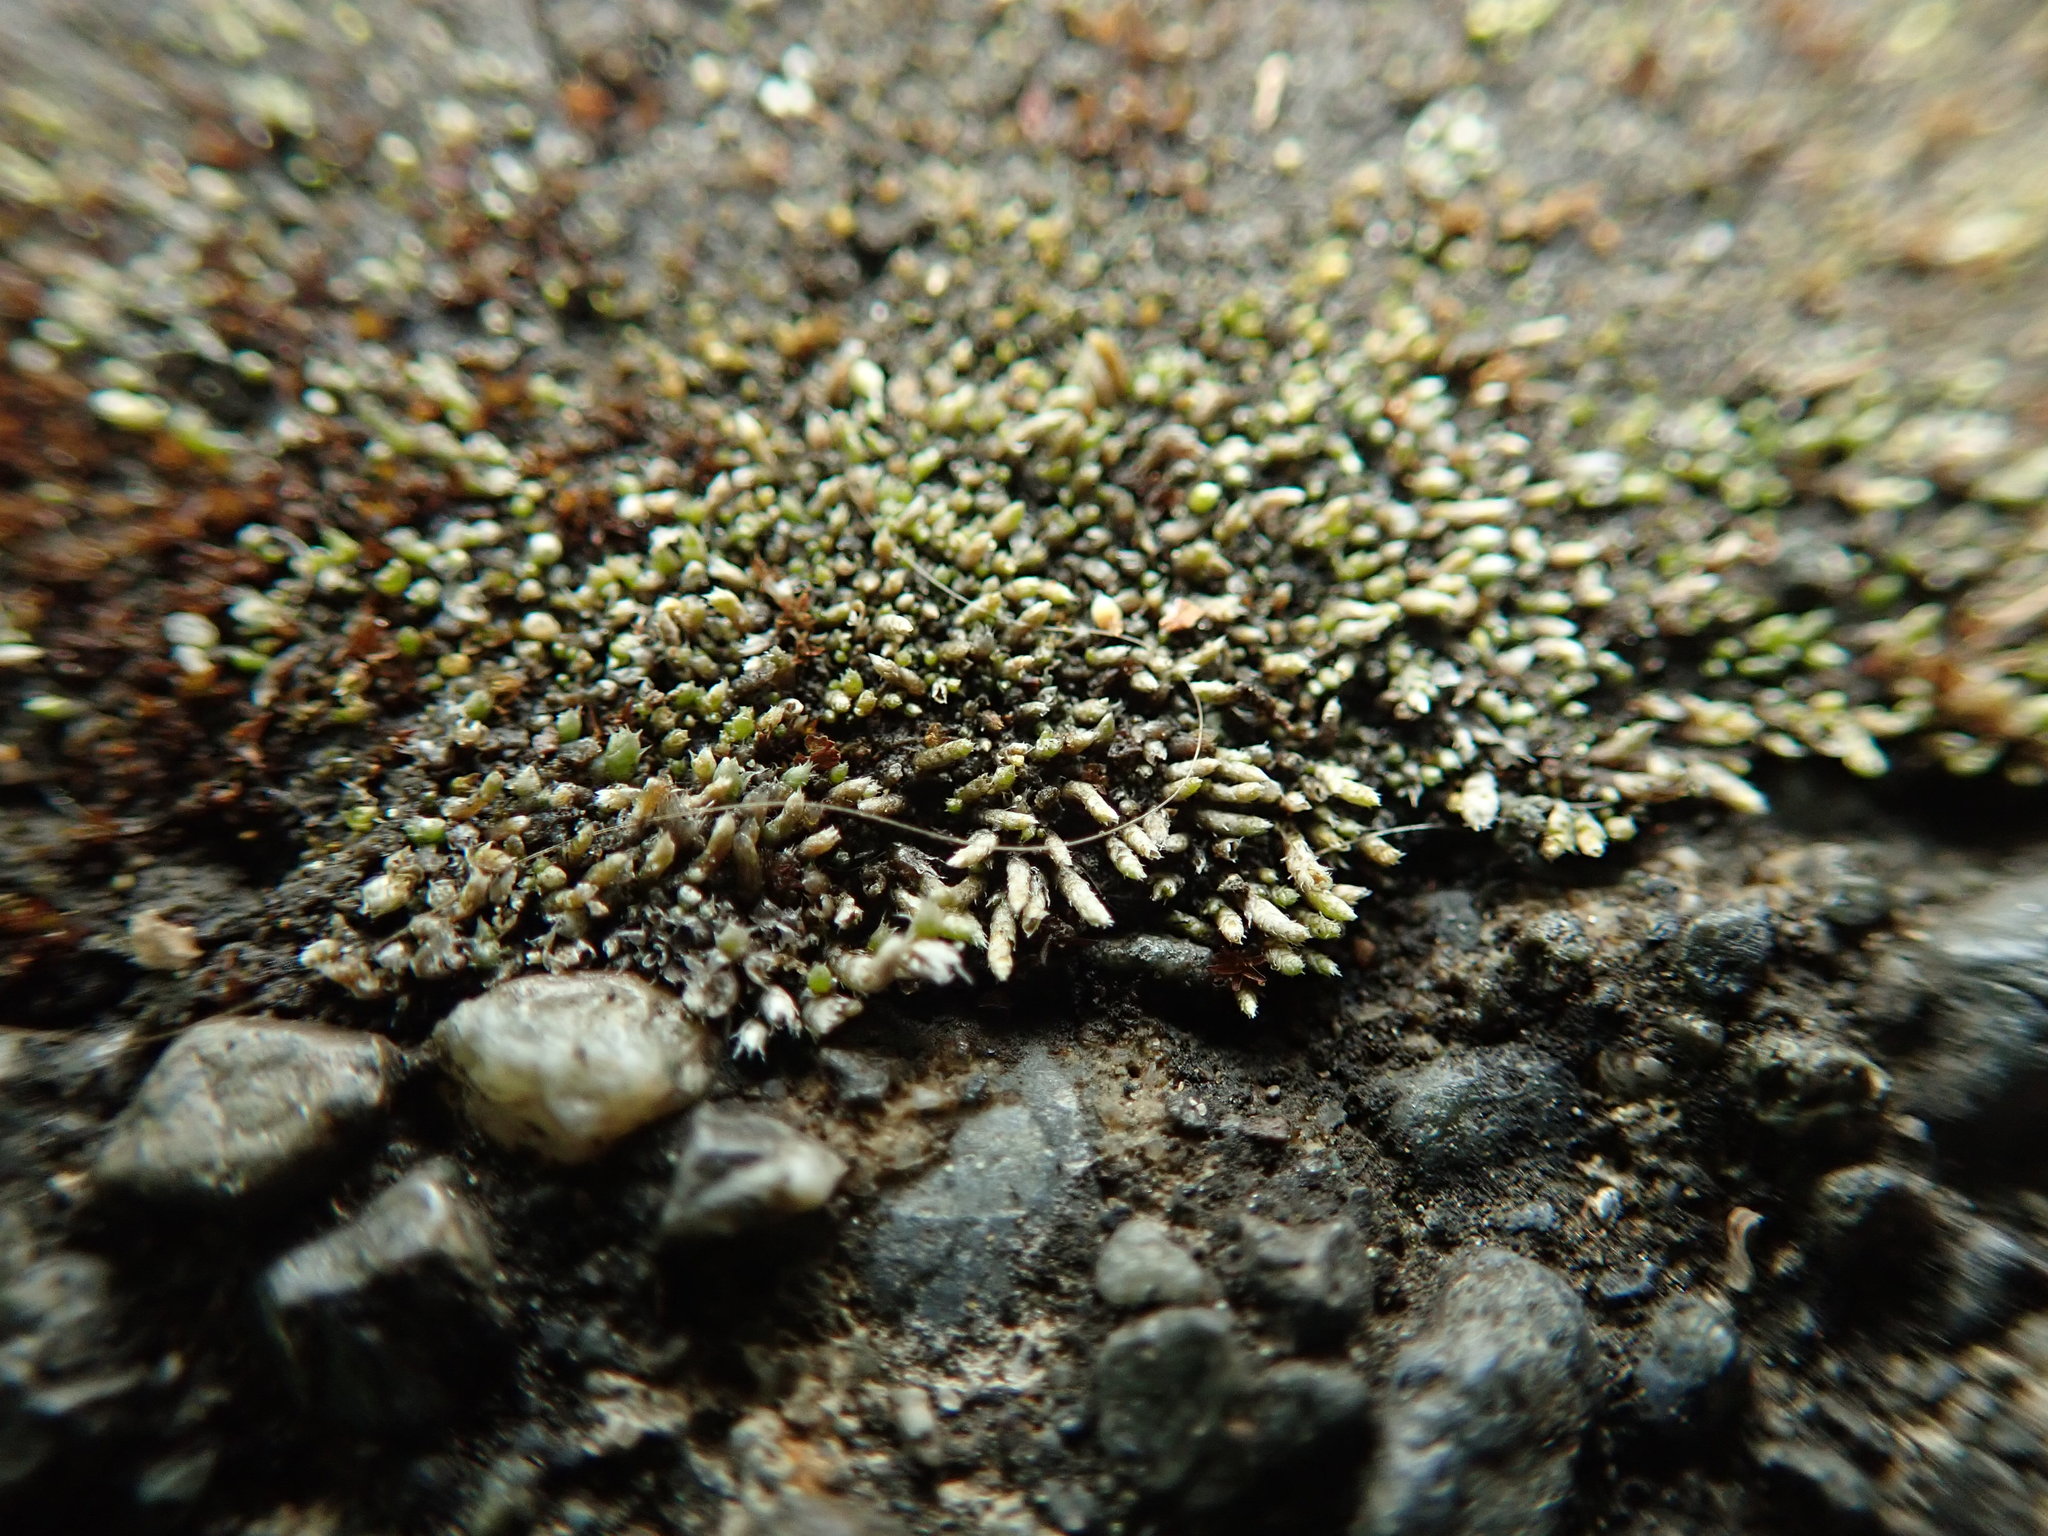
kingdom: Plantae
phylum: Bryophyta
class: Bryopsida
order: Bryales
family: Bryaceae
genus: Bryum
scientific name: Bryum argenteum
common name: Silver-moss
